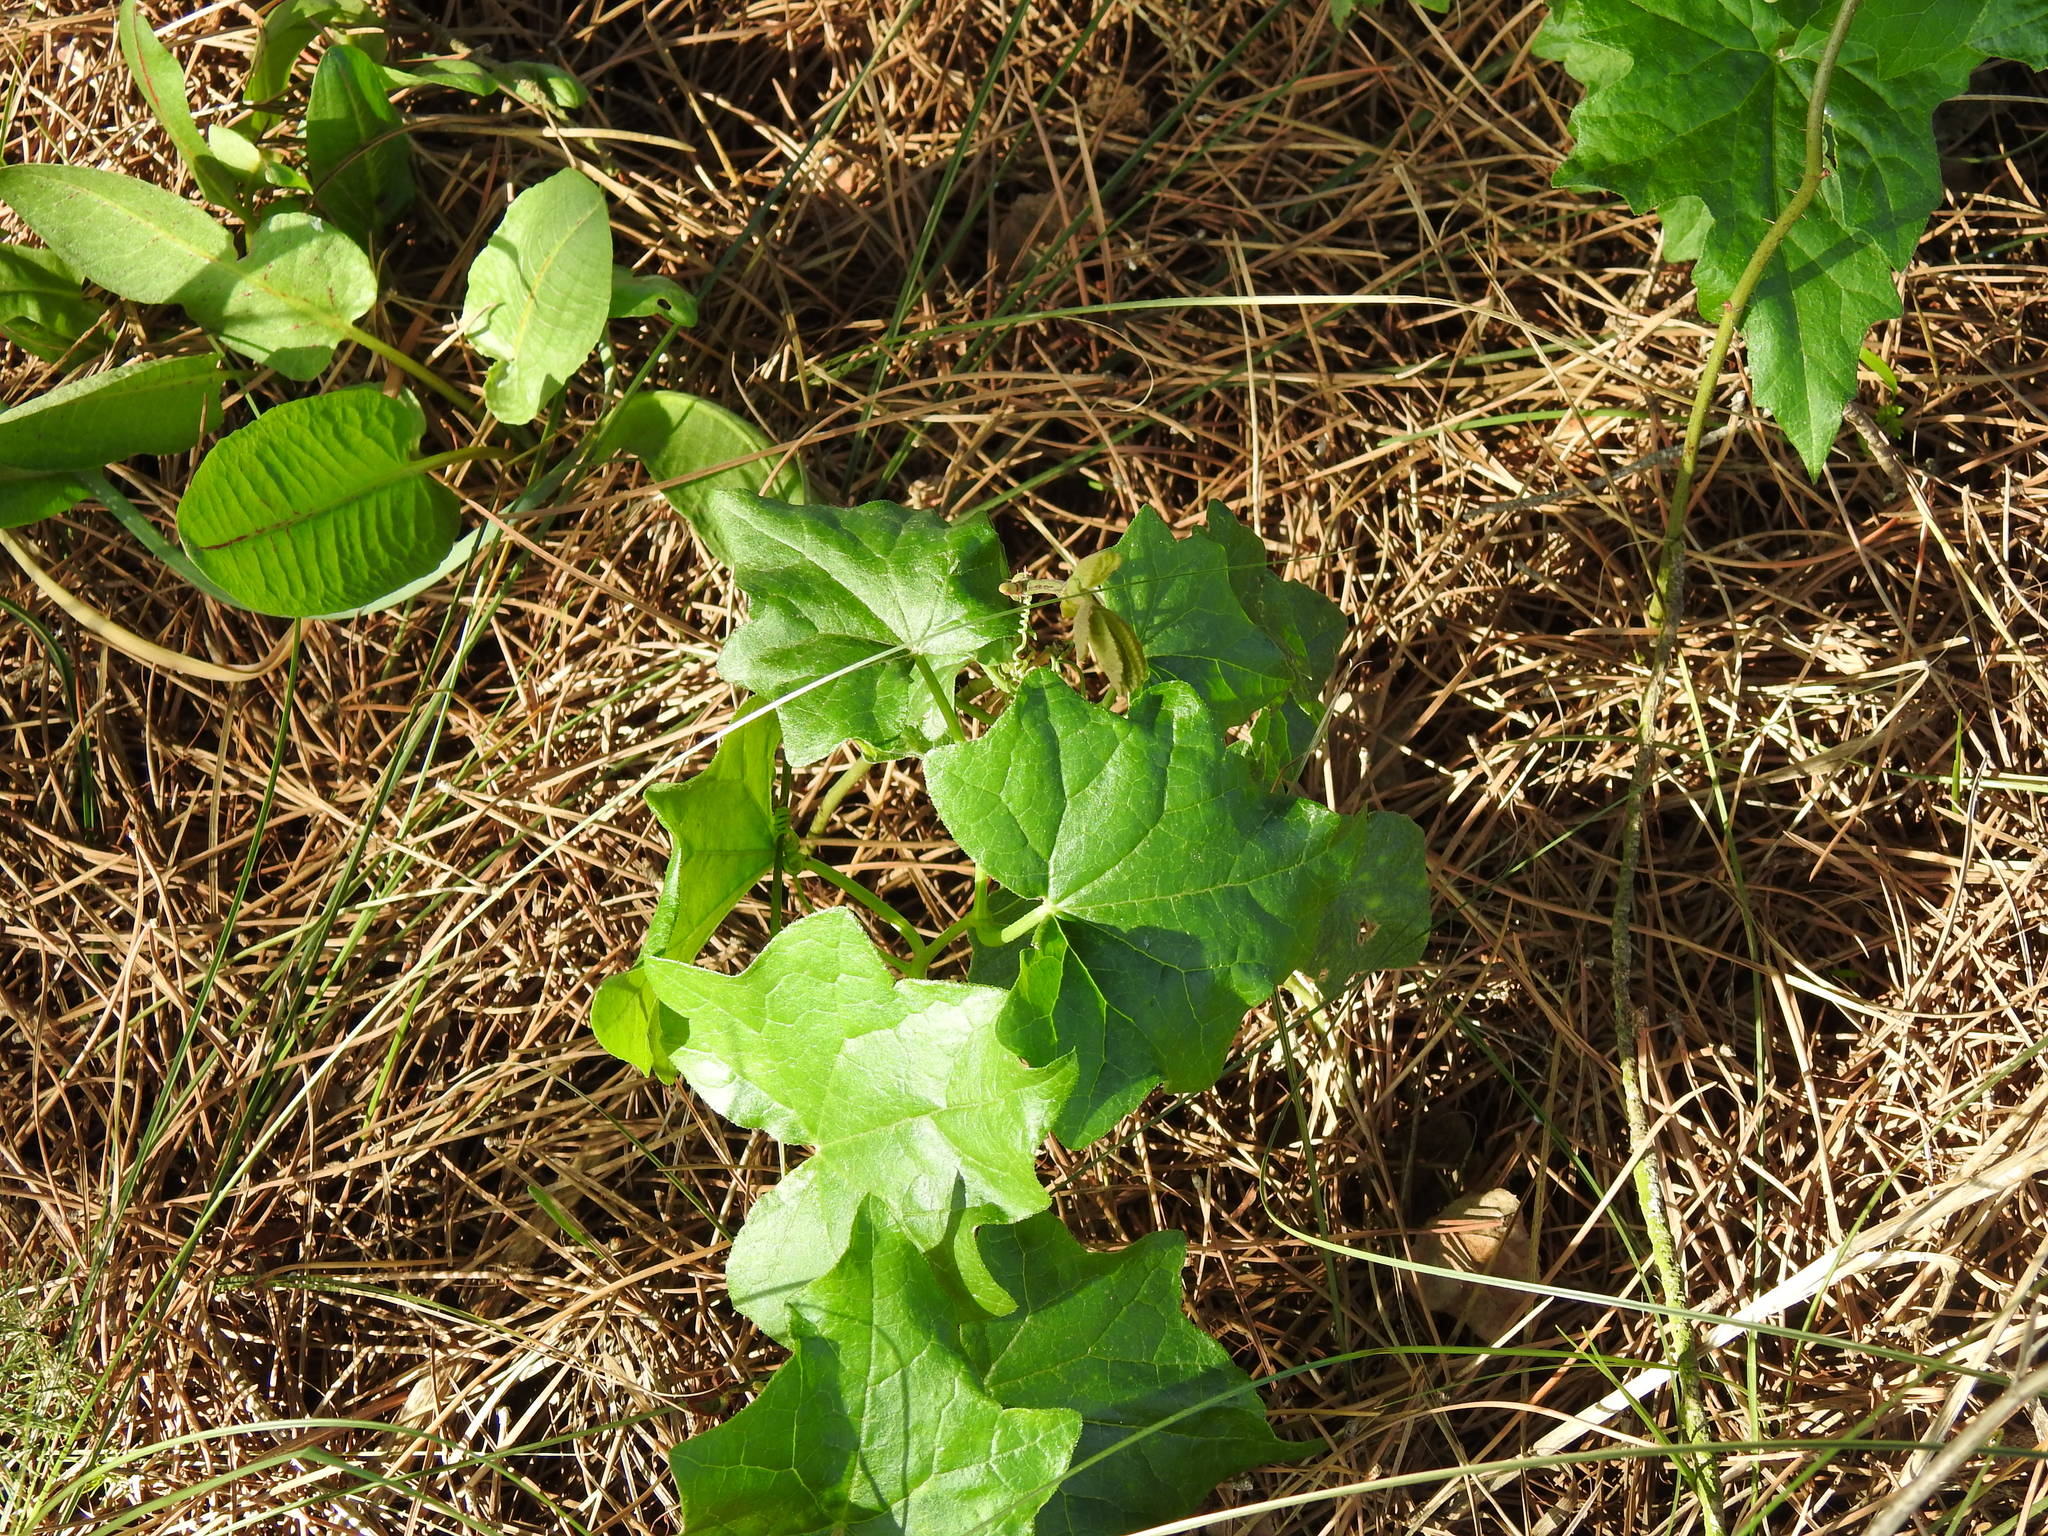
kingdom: Plantae
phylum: Tracheophyta
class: Magnoliopsida
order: Cucurbitales
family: Cucurbitaceae
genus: Bryonia
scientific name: Bryonia cretica
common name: Cretan bryony
